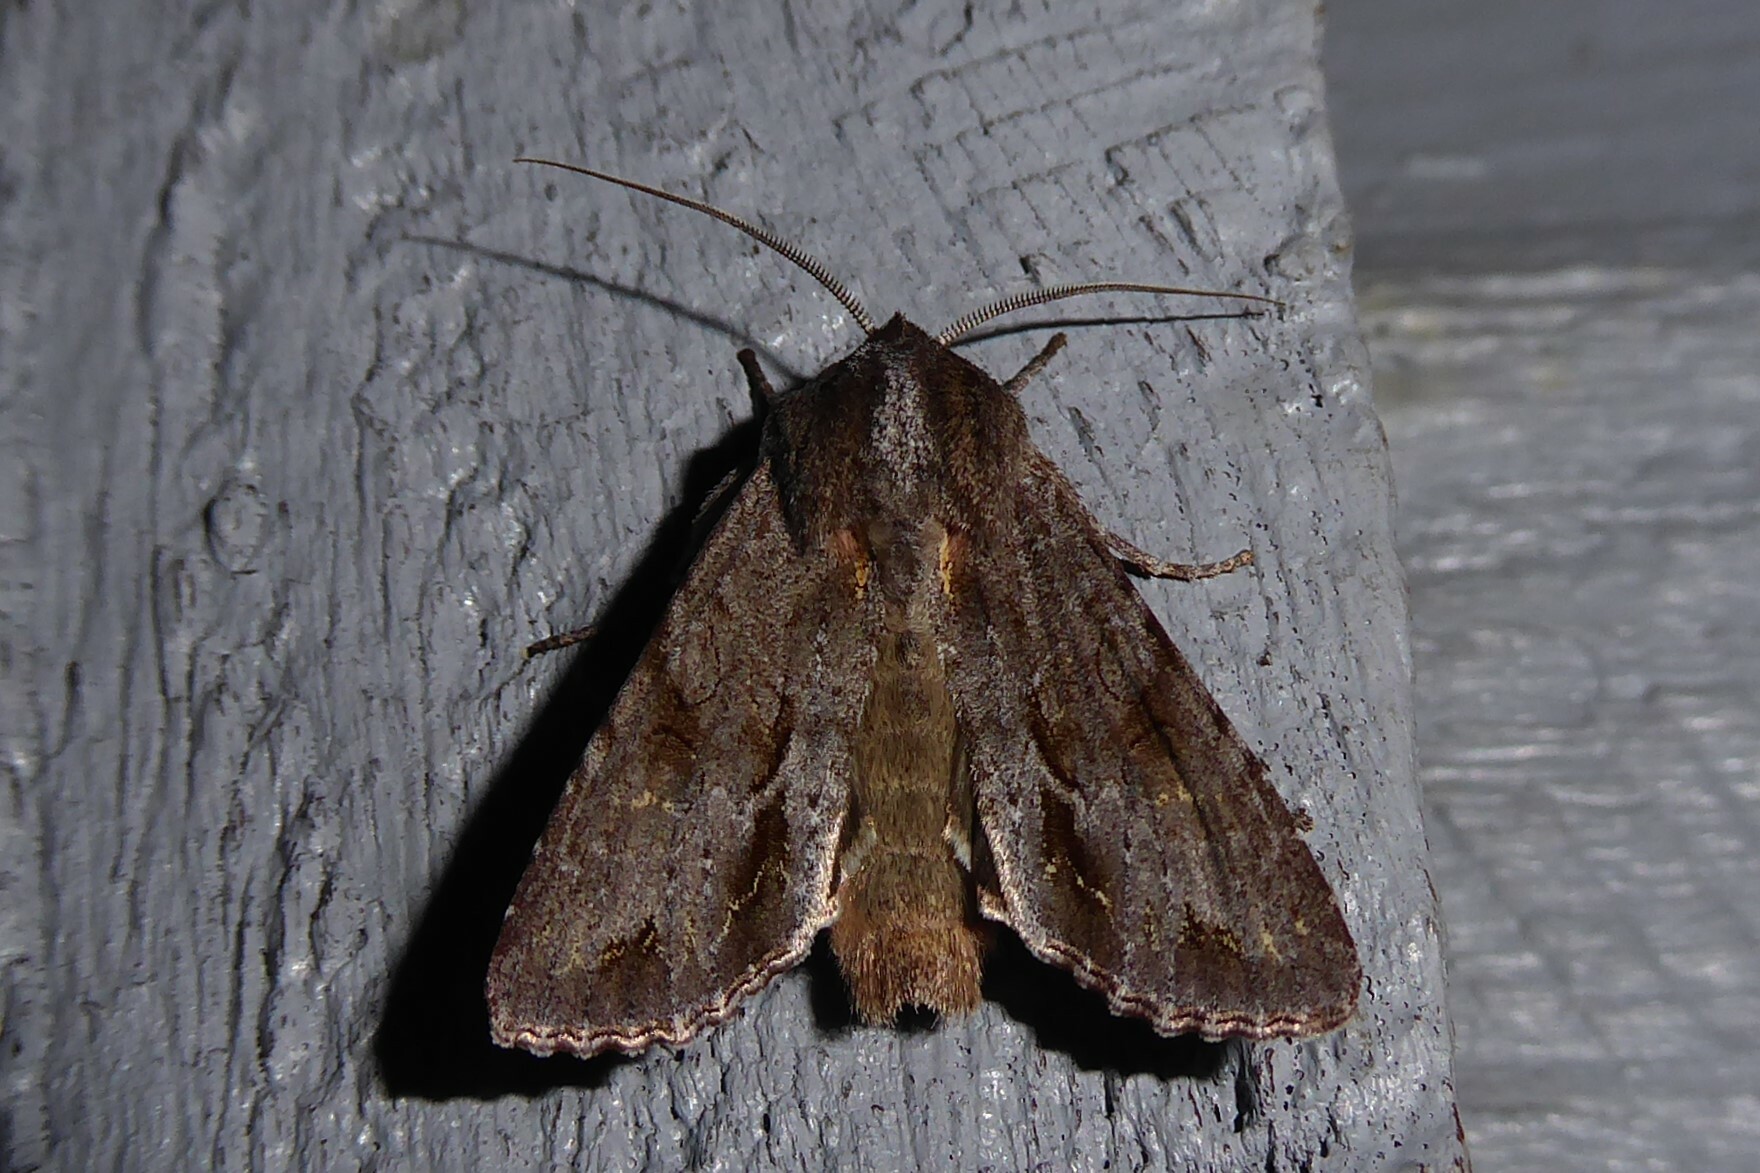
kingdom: Animalia
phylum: Arthropoda
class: Insecta
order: Lepidoptera
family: Noctuidae
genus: Ichneutica
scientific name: Ichneutica
